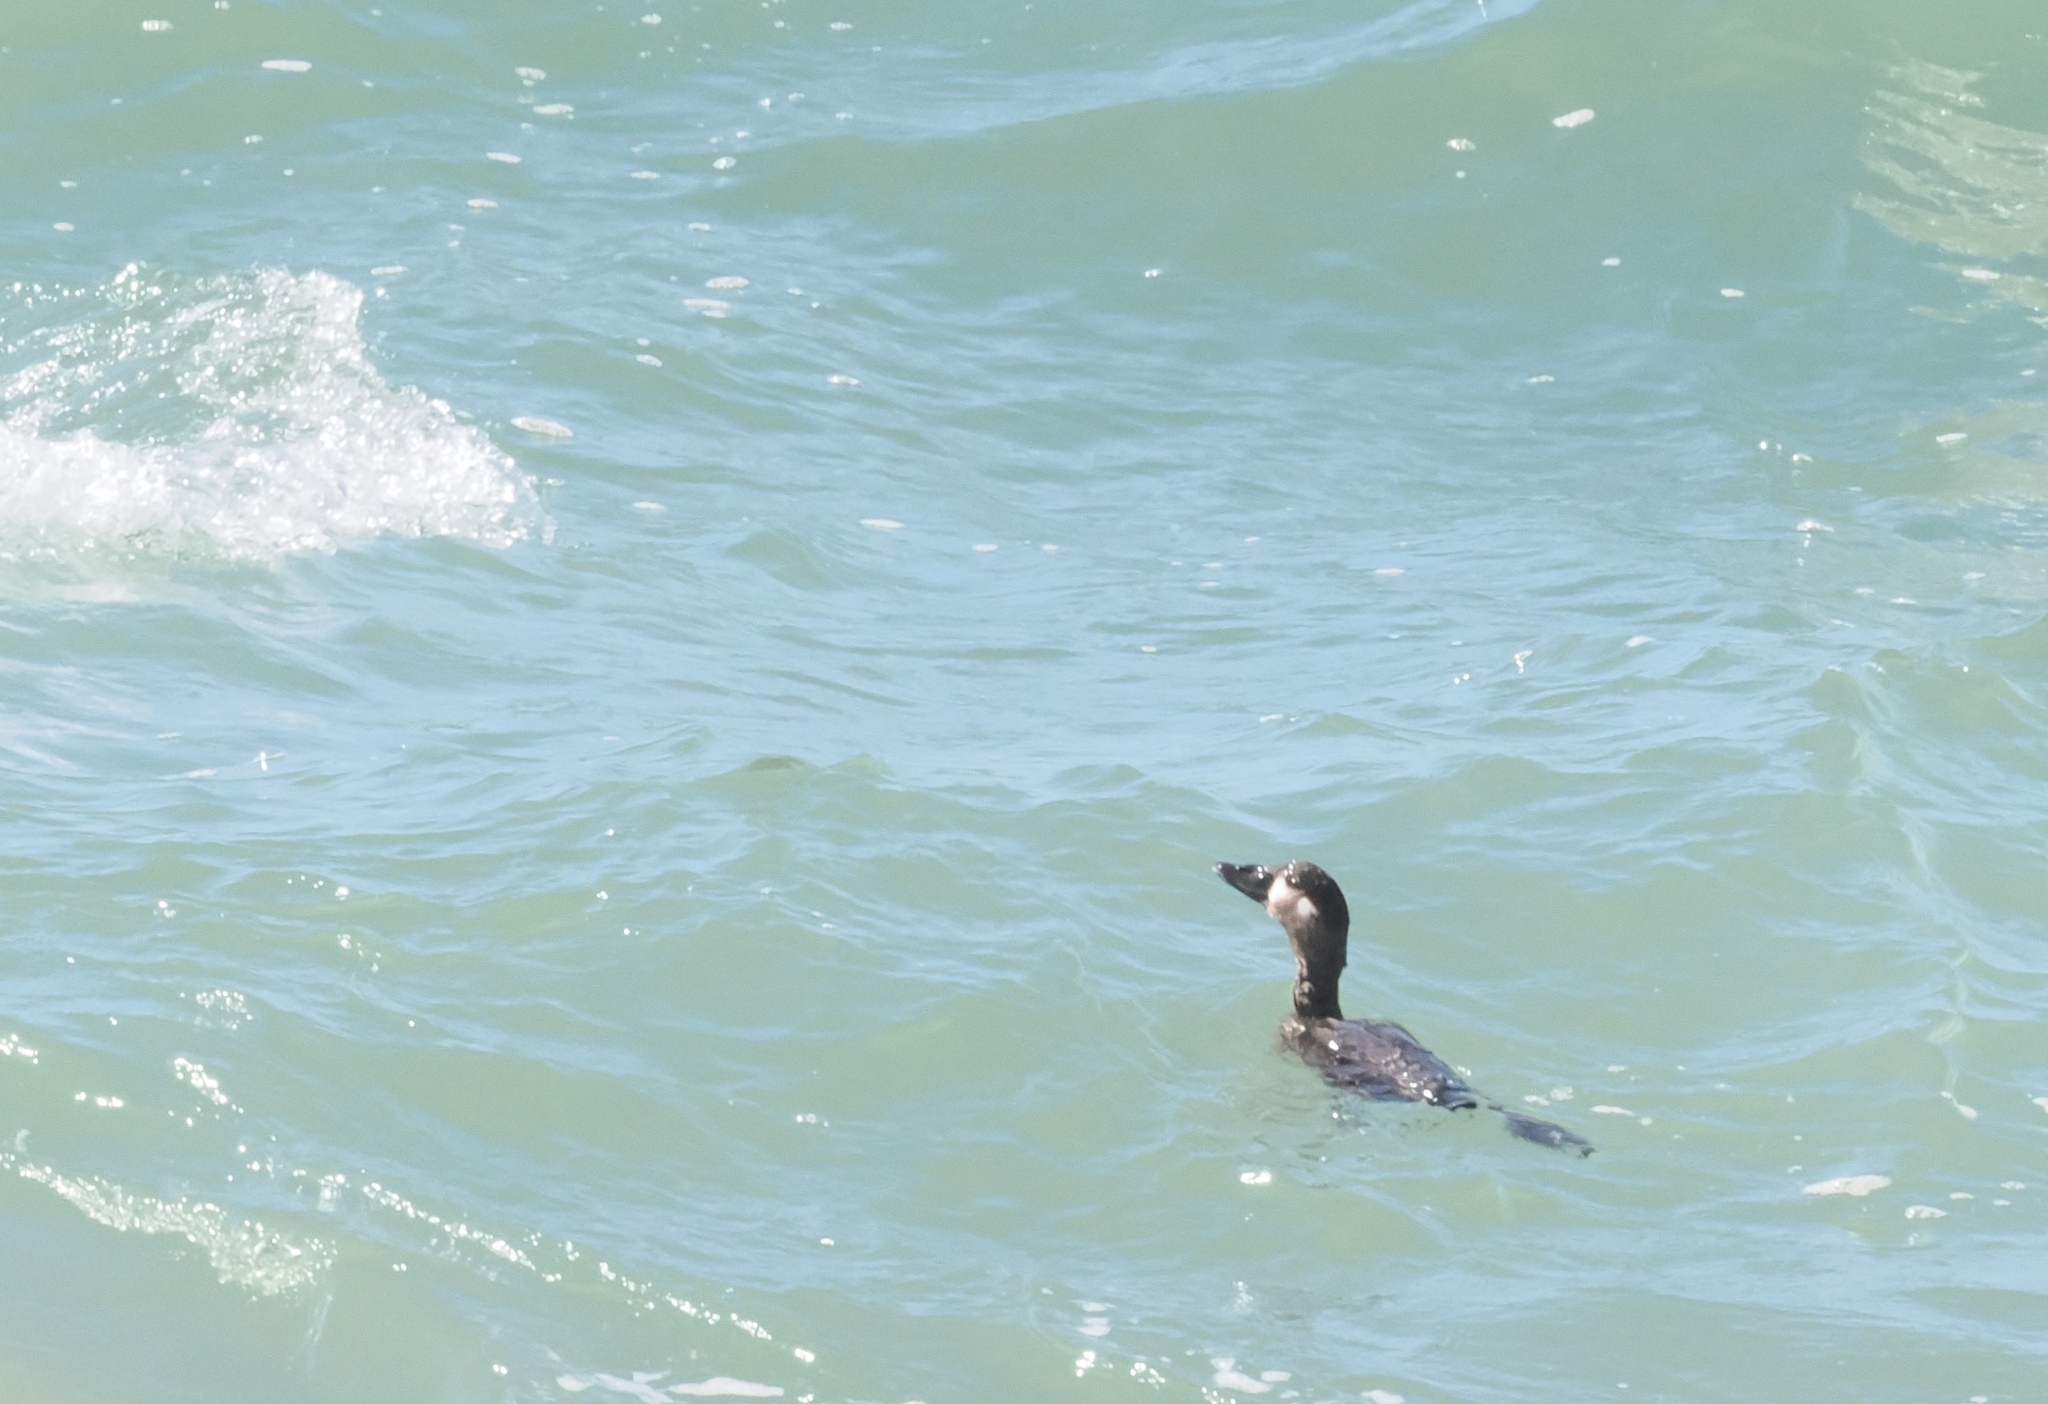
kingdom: Animalia
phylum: Chordata
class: Aves
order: Anseriformes
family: Anatidae
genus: Melanitta
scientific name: Melanitta perspicillata
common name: Surf scoter
